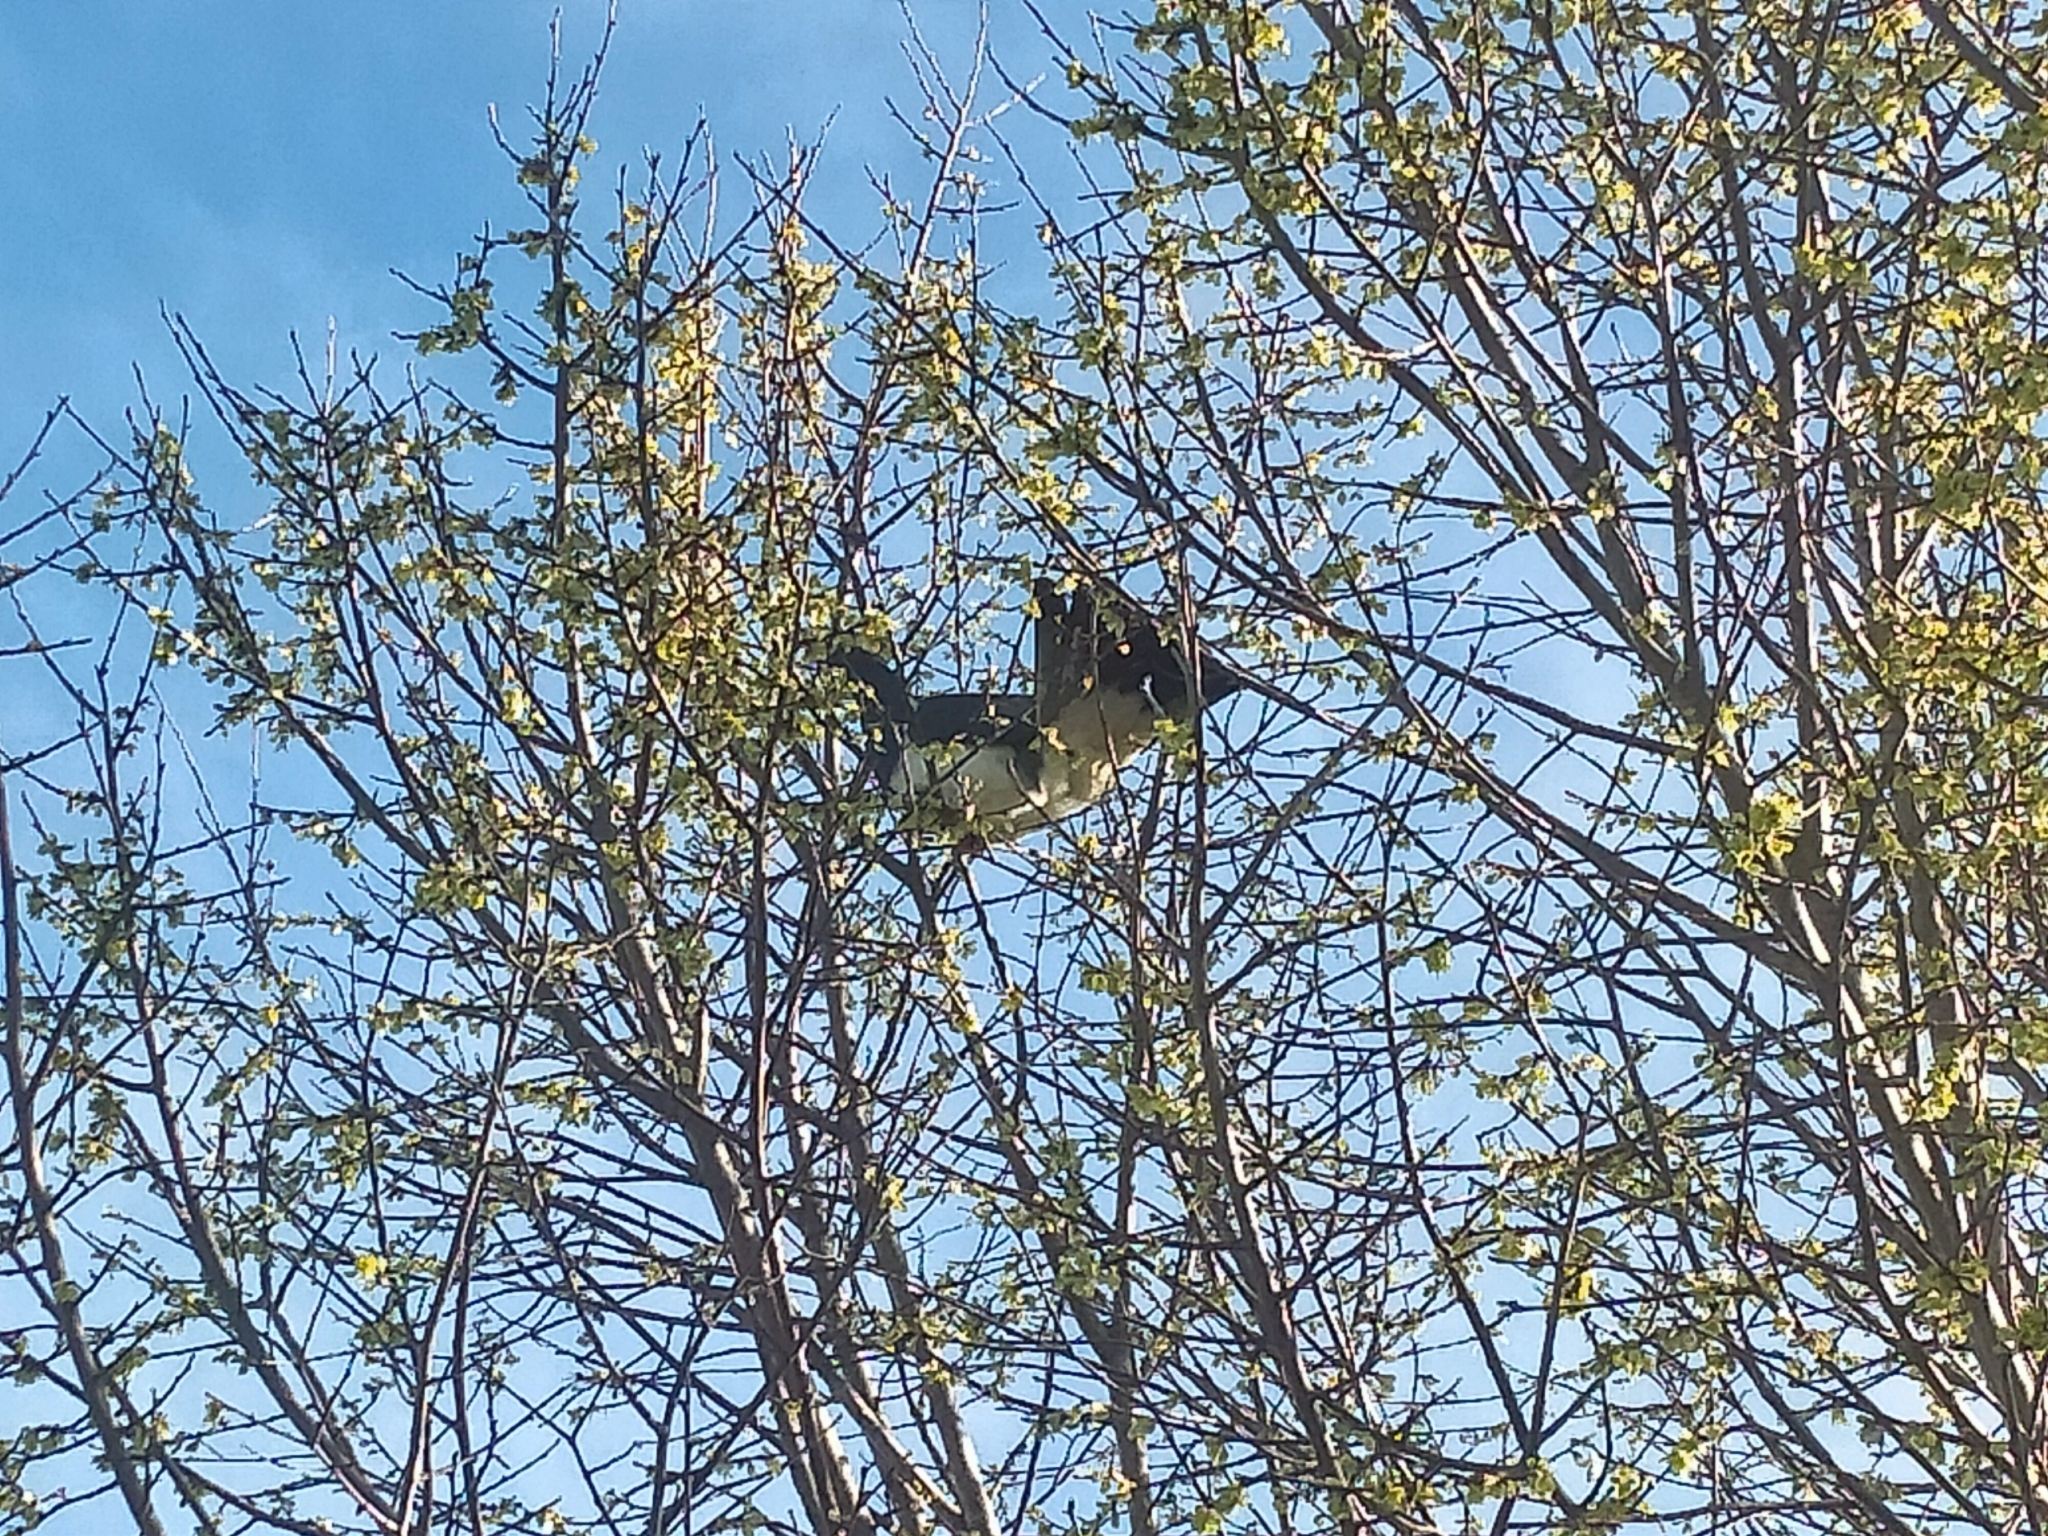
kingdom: Animalia
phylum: Chordata
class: Aves
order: Columbiformes
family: Columbidae
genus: Hemiphaga
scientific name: Hemiphaga novaeseelandiae
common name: New zealand pigeon
